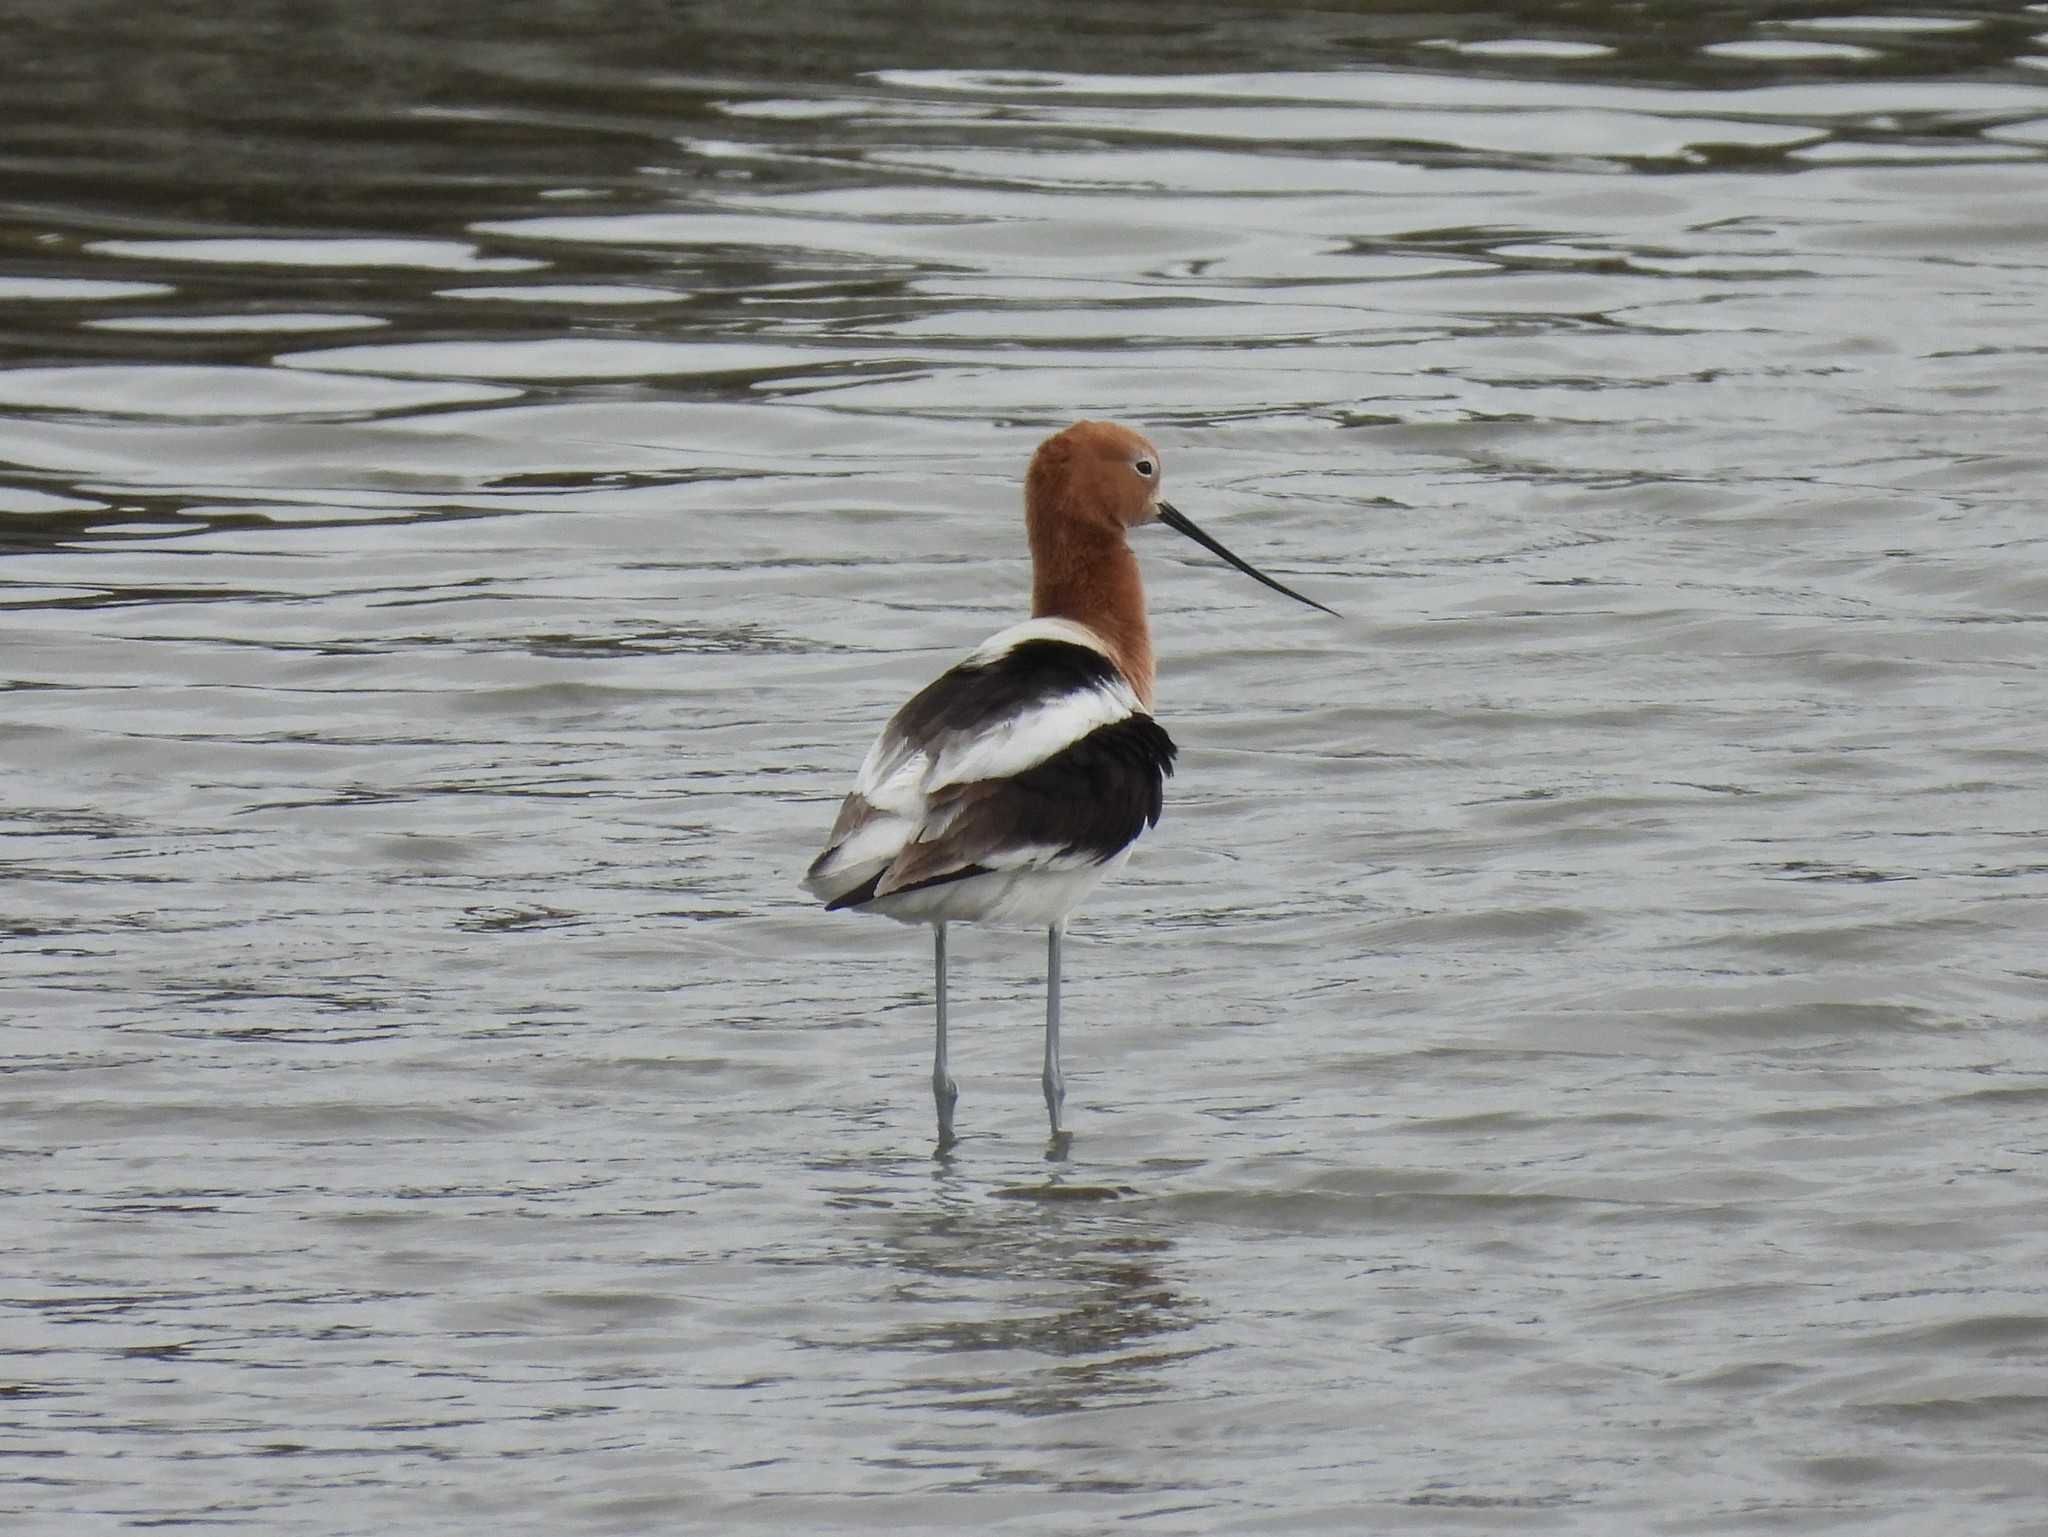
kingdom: Animalia
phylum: Chordata
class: Aves
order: Charadriiformes
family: Recurvirostridae
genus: Recurvirostra
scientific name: Recurvirostra americana
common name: American avocet
